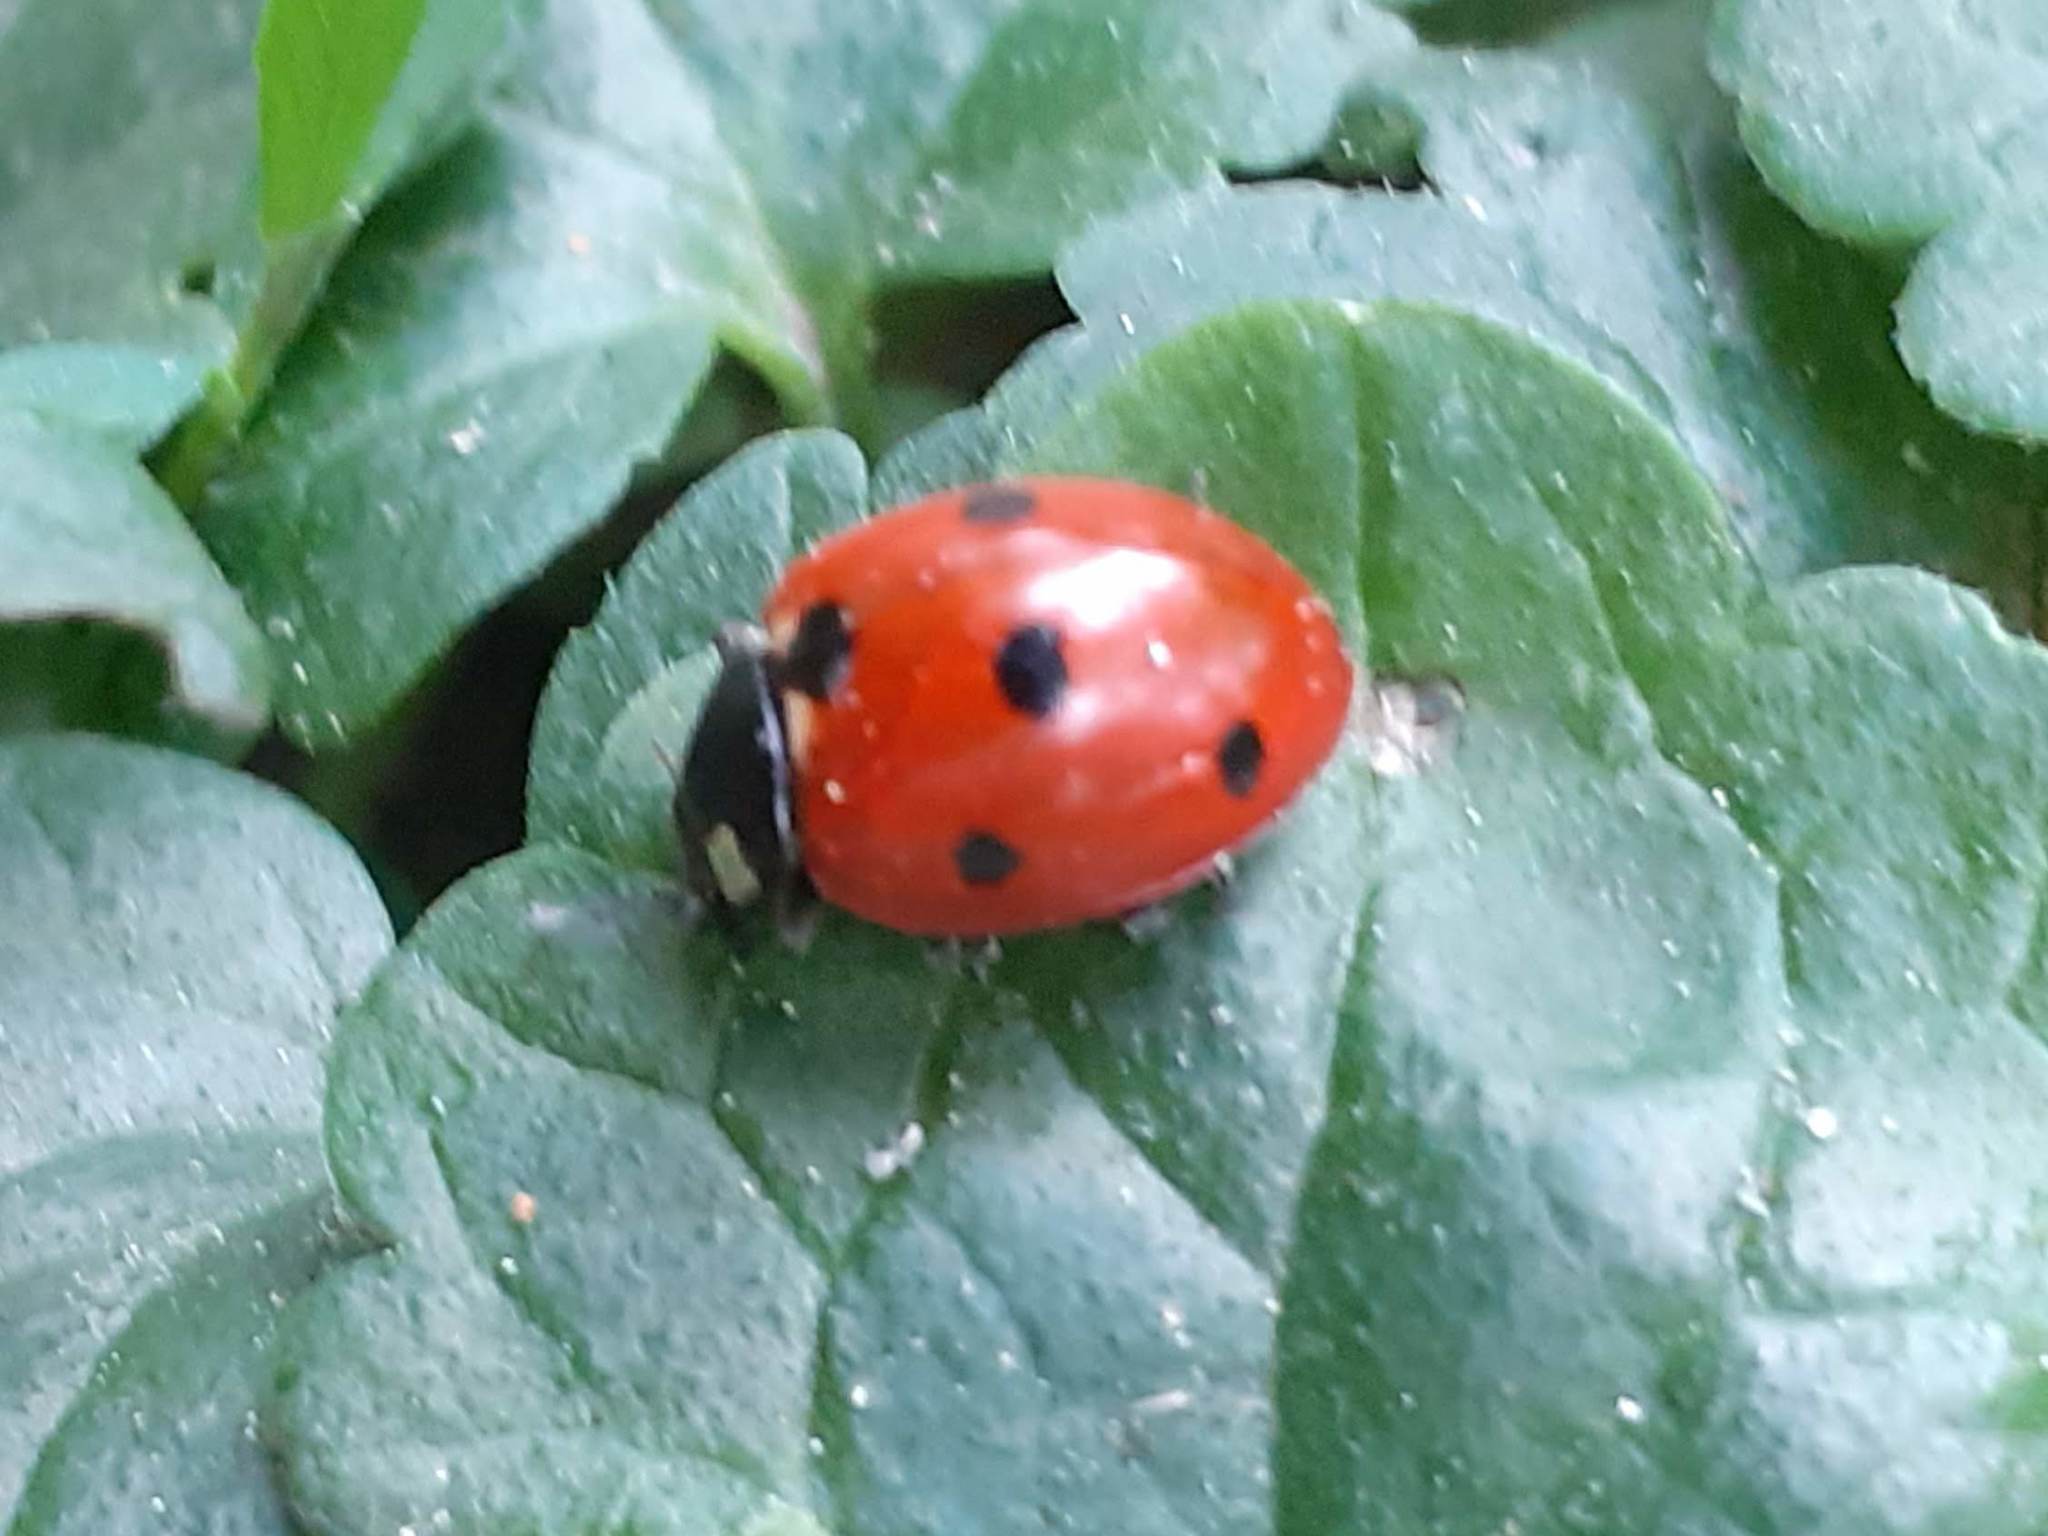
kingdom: Animalia
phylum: Arthropoda
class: Insecta
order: Coleoptera
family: Coccinellidae
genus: Coccinella
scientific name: Coccinella septempunctata
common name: Sevenspotted lady beetle
